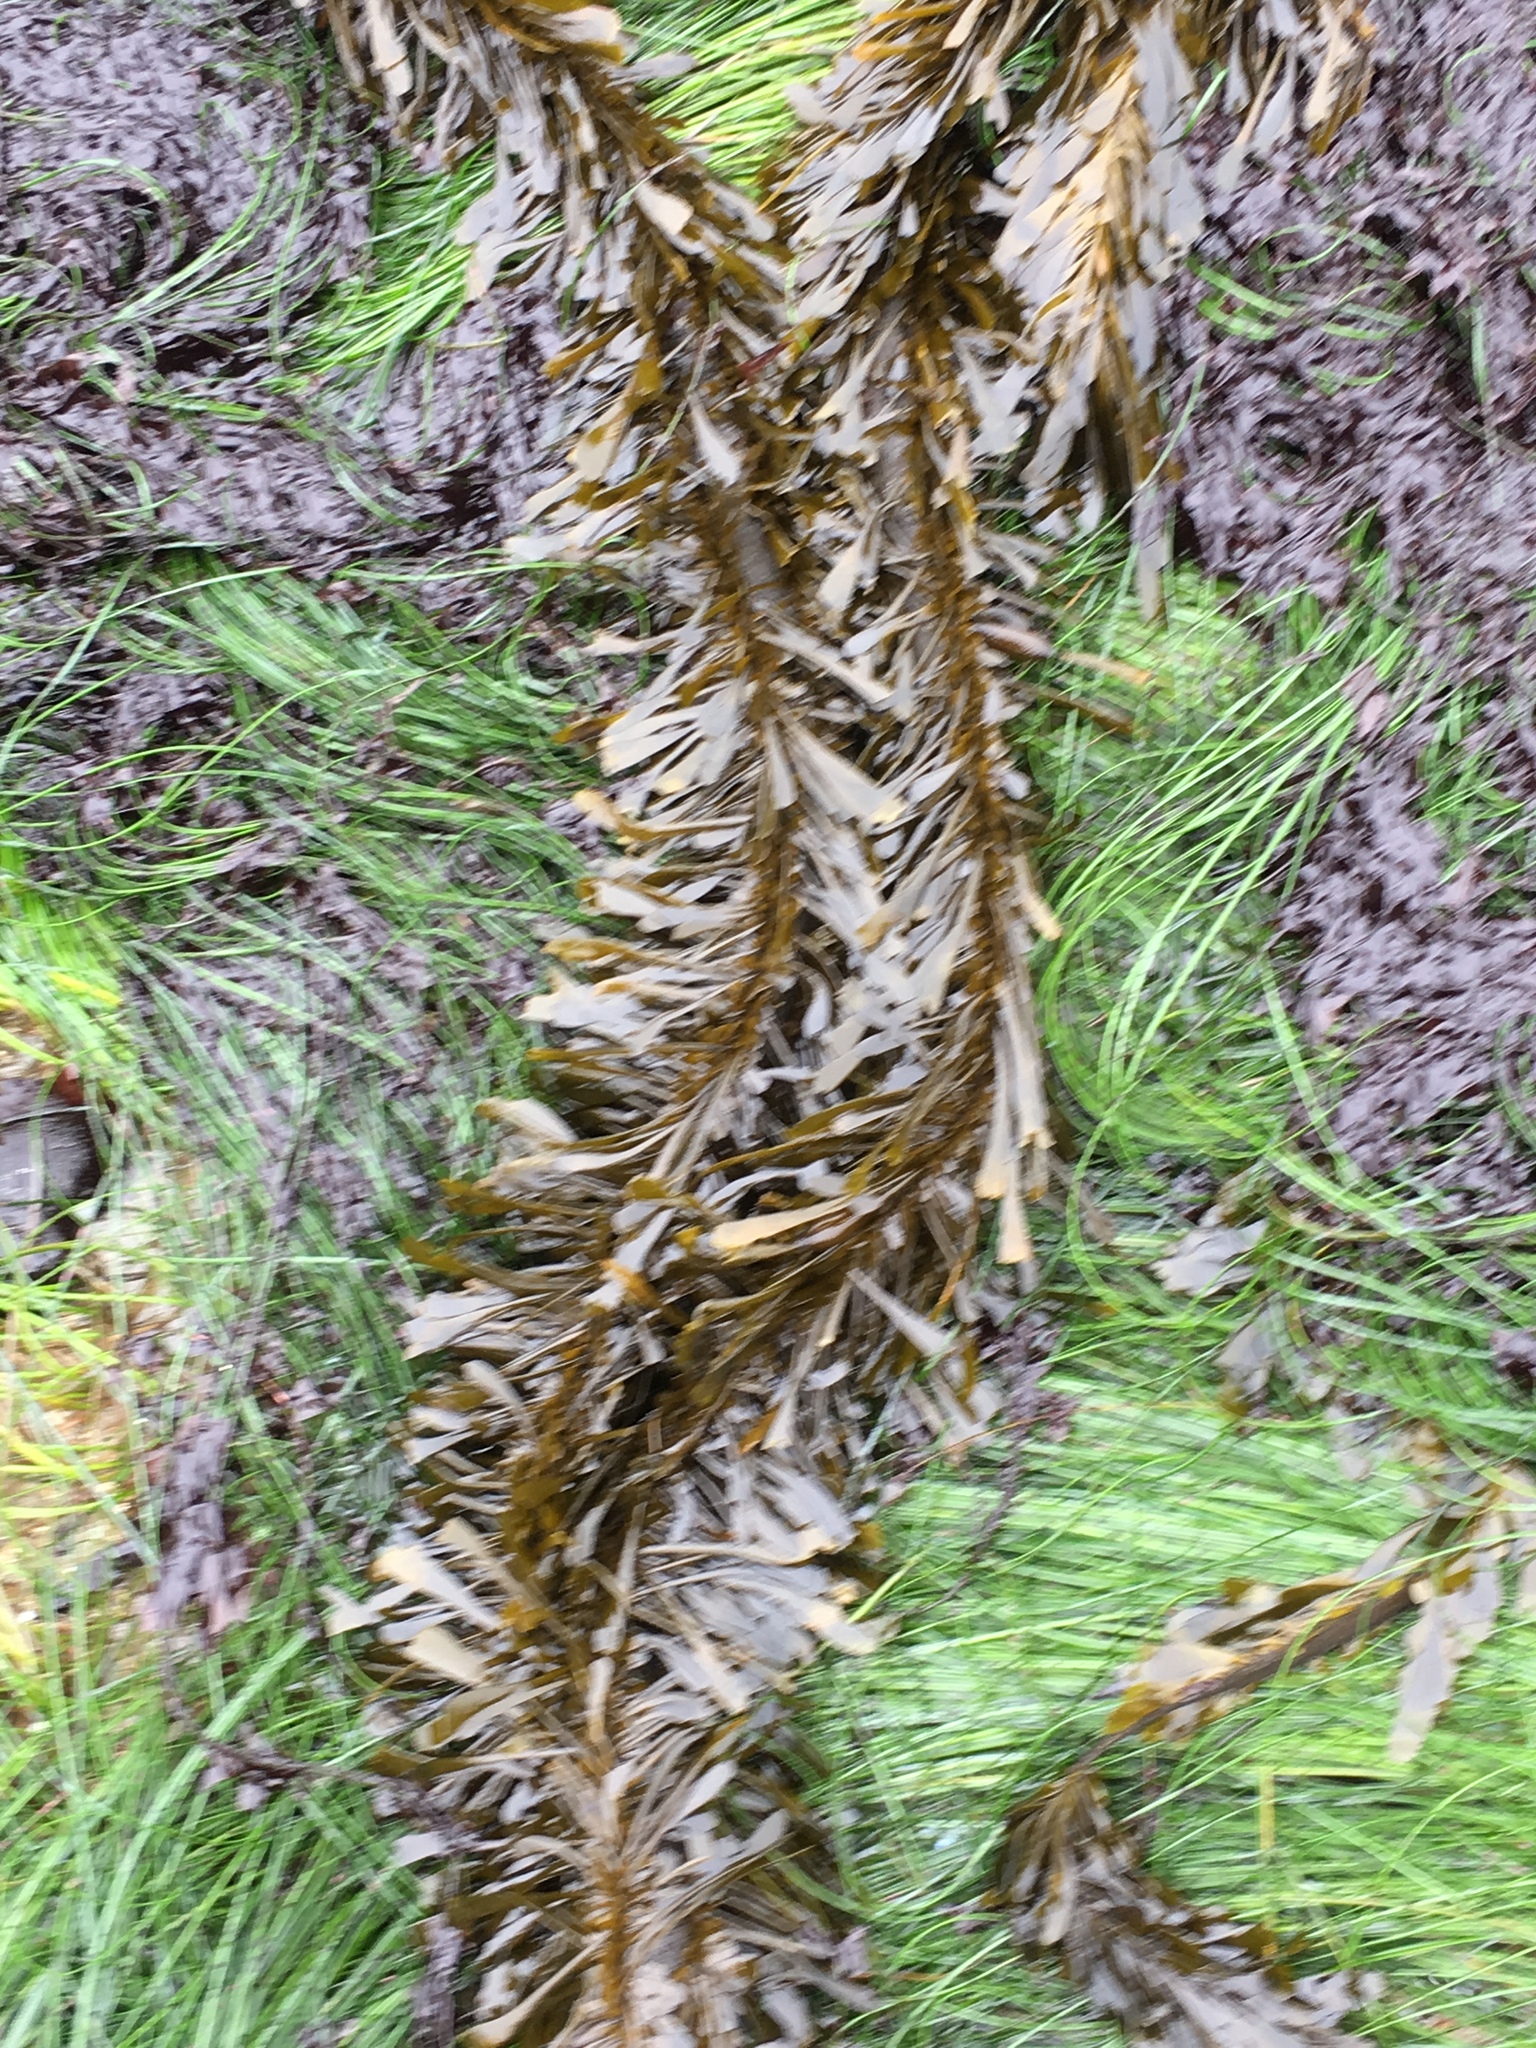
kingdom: Chromista
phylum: Ochrophyta
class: Phaeophyceae
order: Laminariales
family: Lessoniaceae
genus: Egregia
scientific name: Egregia menziesii
